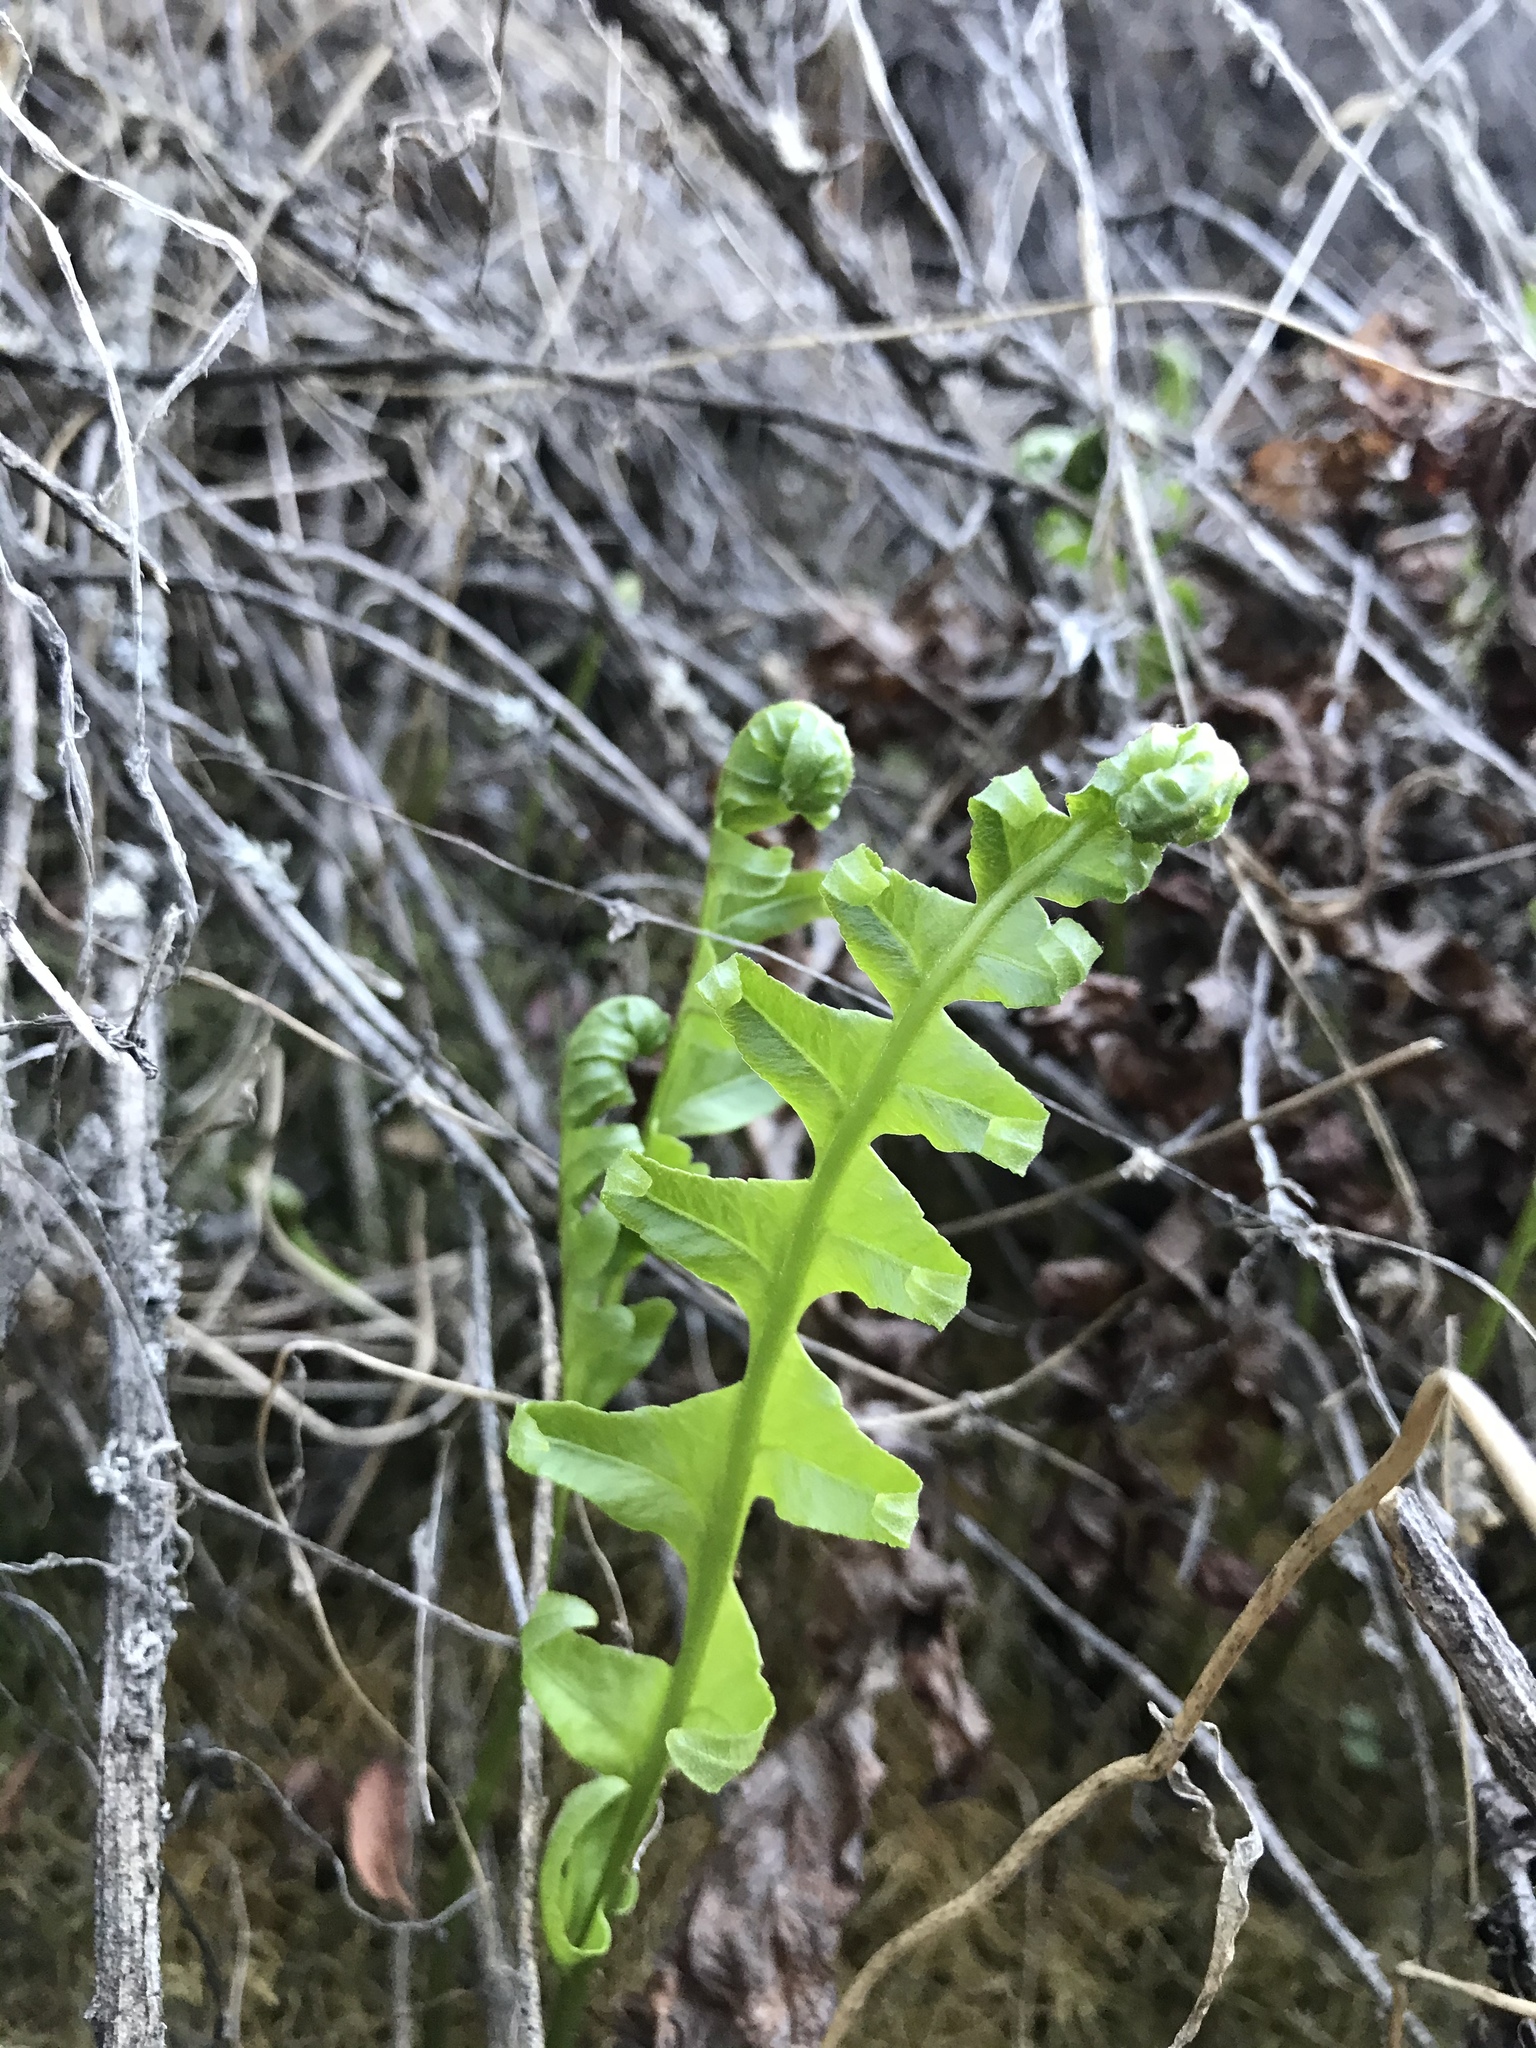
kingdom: Plantae
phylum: Tracheophyta
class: Polypodiopsida
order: Polypodiales
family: Polypodiaceae
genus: Polypodium
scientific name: Polypodium californicum
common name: California polypody
